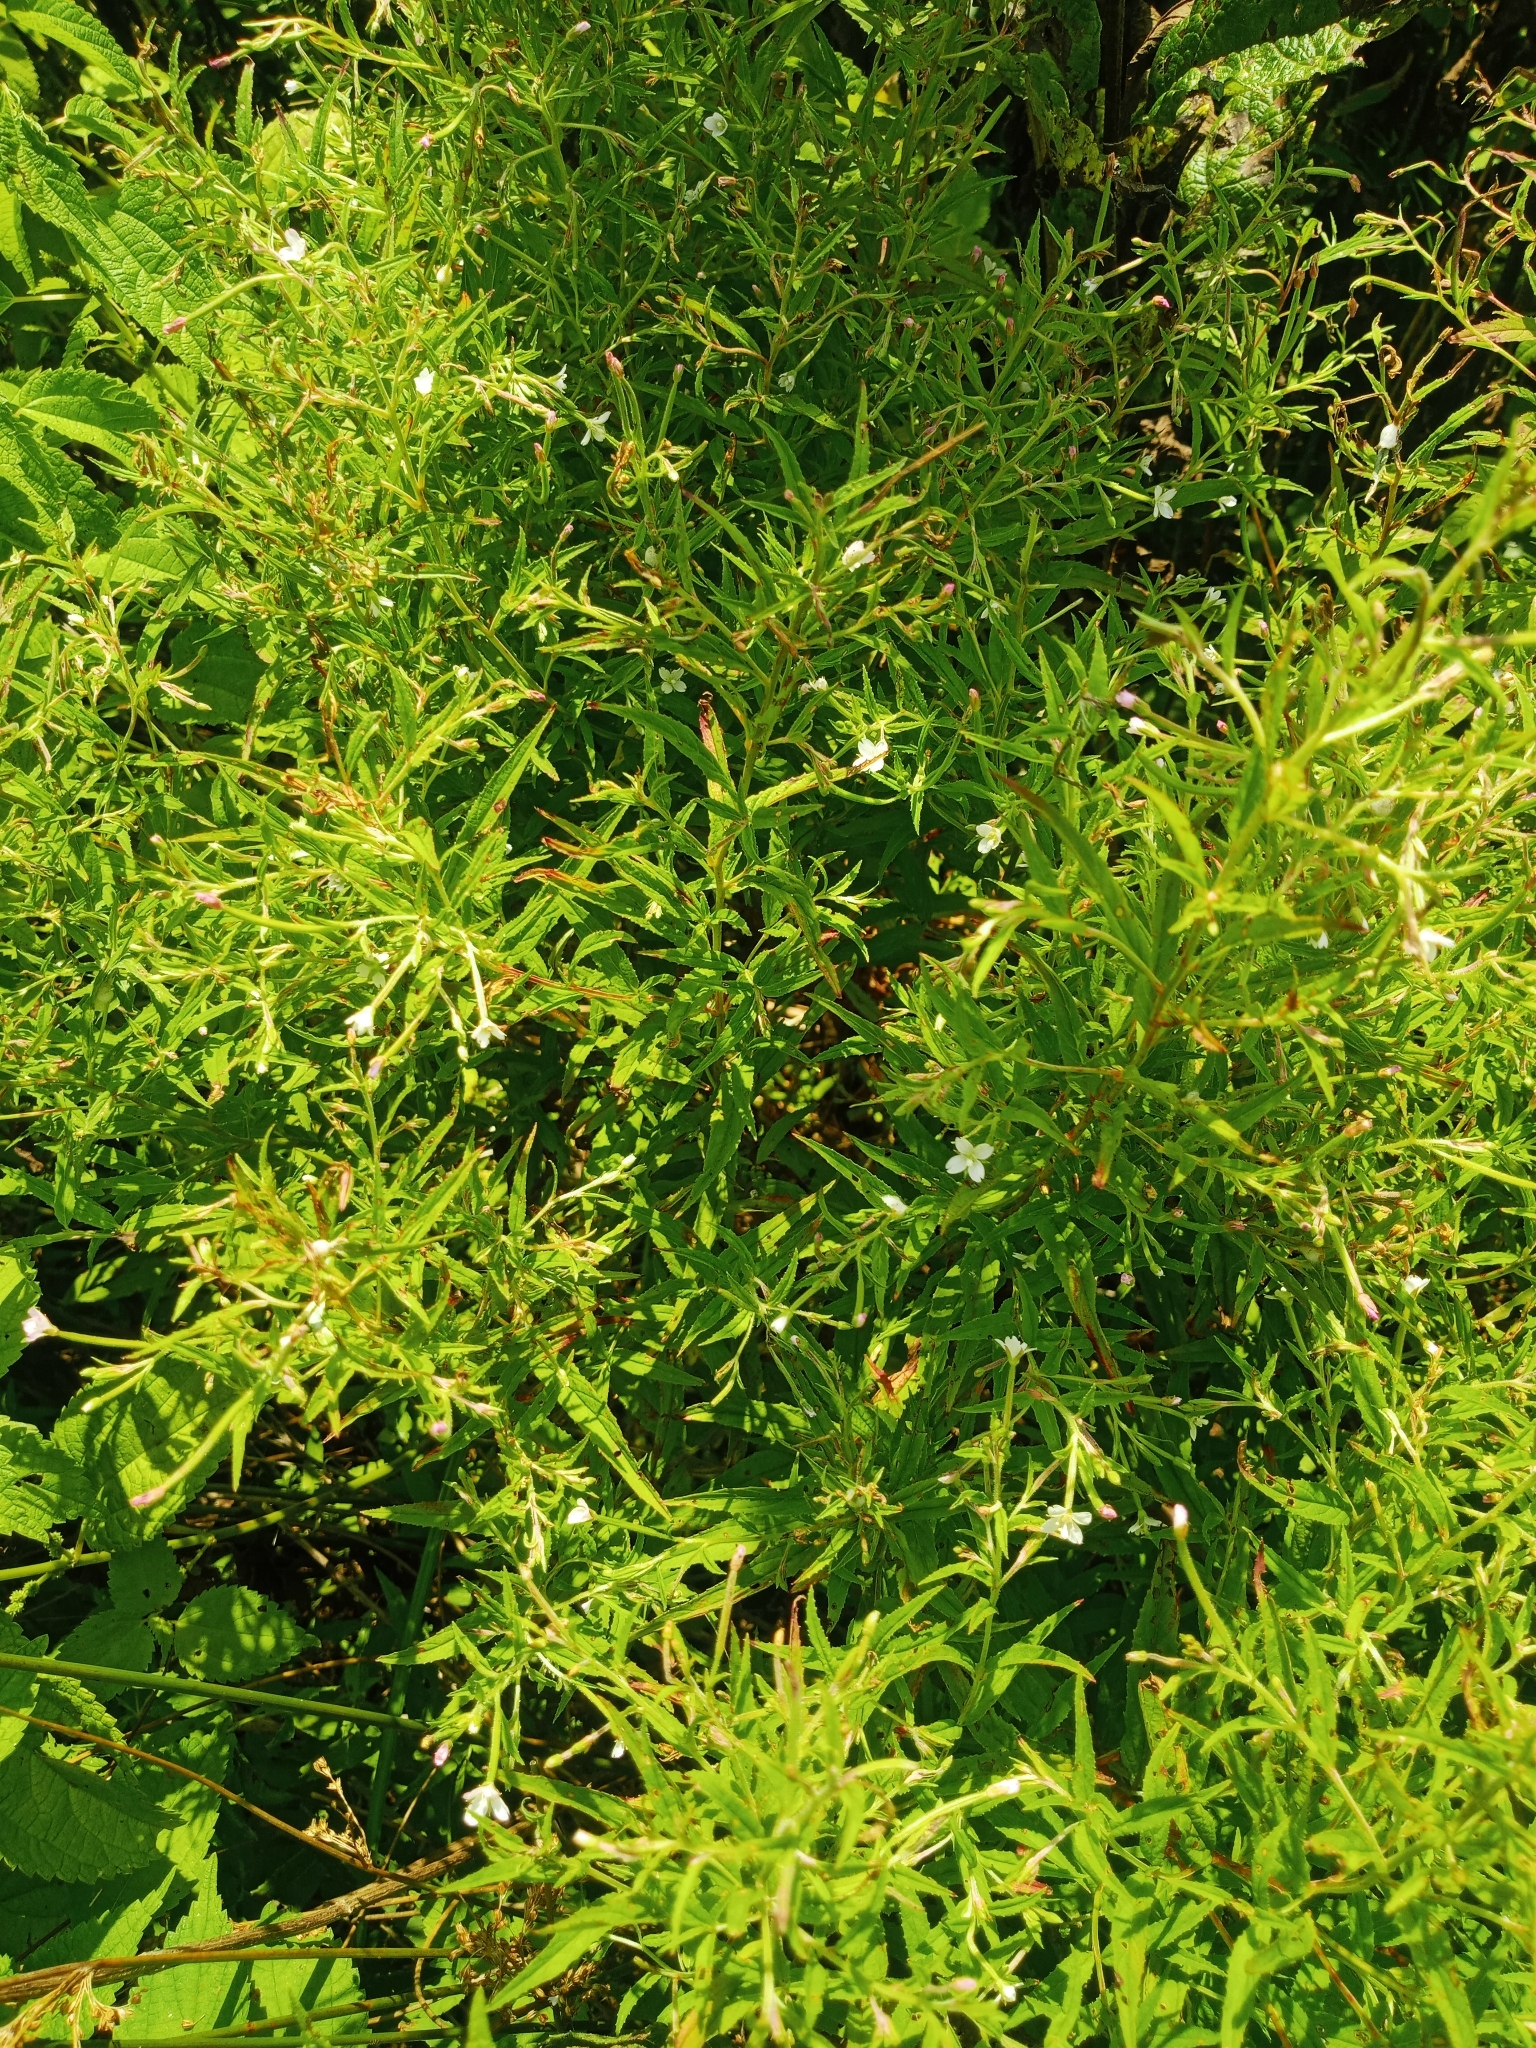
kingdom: Plantae
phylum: Tracheophyta
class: Magnoliopsida
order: Myrtales
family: Onagraceae
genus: Epilobium
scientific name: Epilobium coloratum
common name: Bronze willowherb
